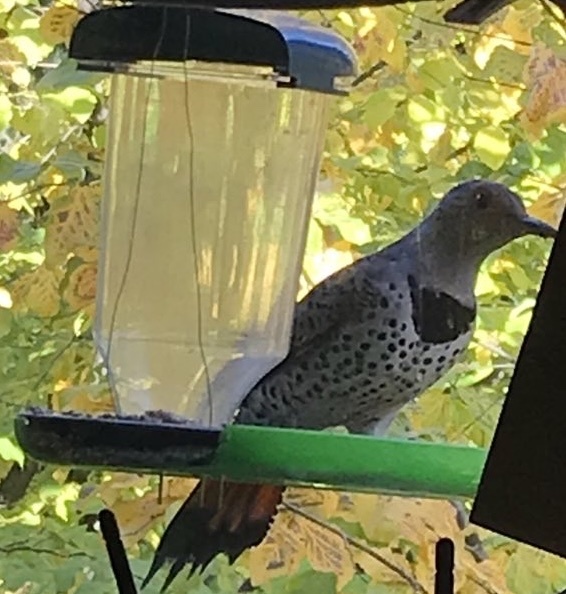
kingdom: Animalia
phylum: Chordata
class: Aves
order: Piciformes
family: Picidae
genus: Colaptes
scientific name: Colaptes auratus
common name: Northern flicker
